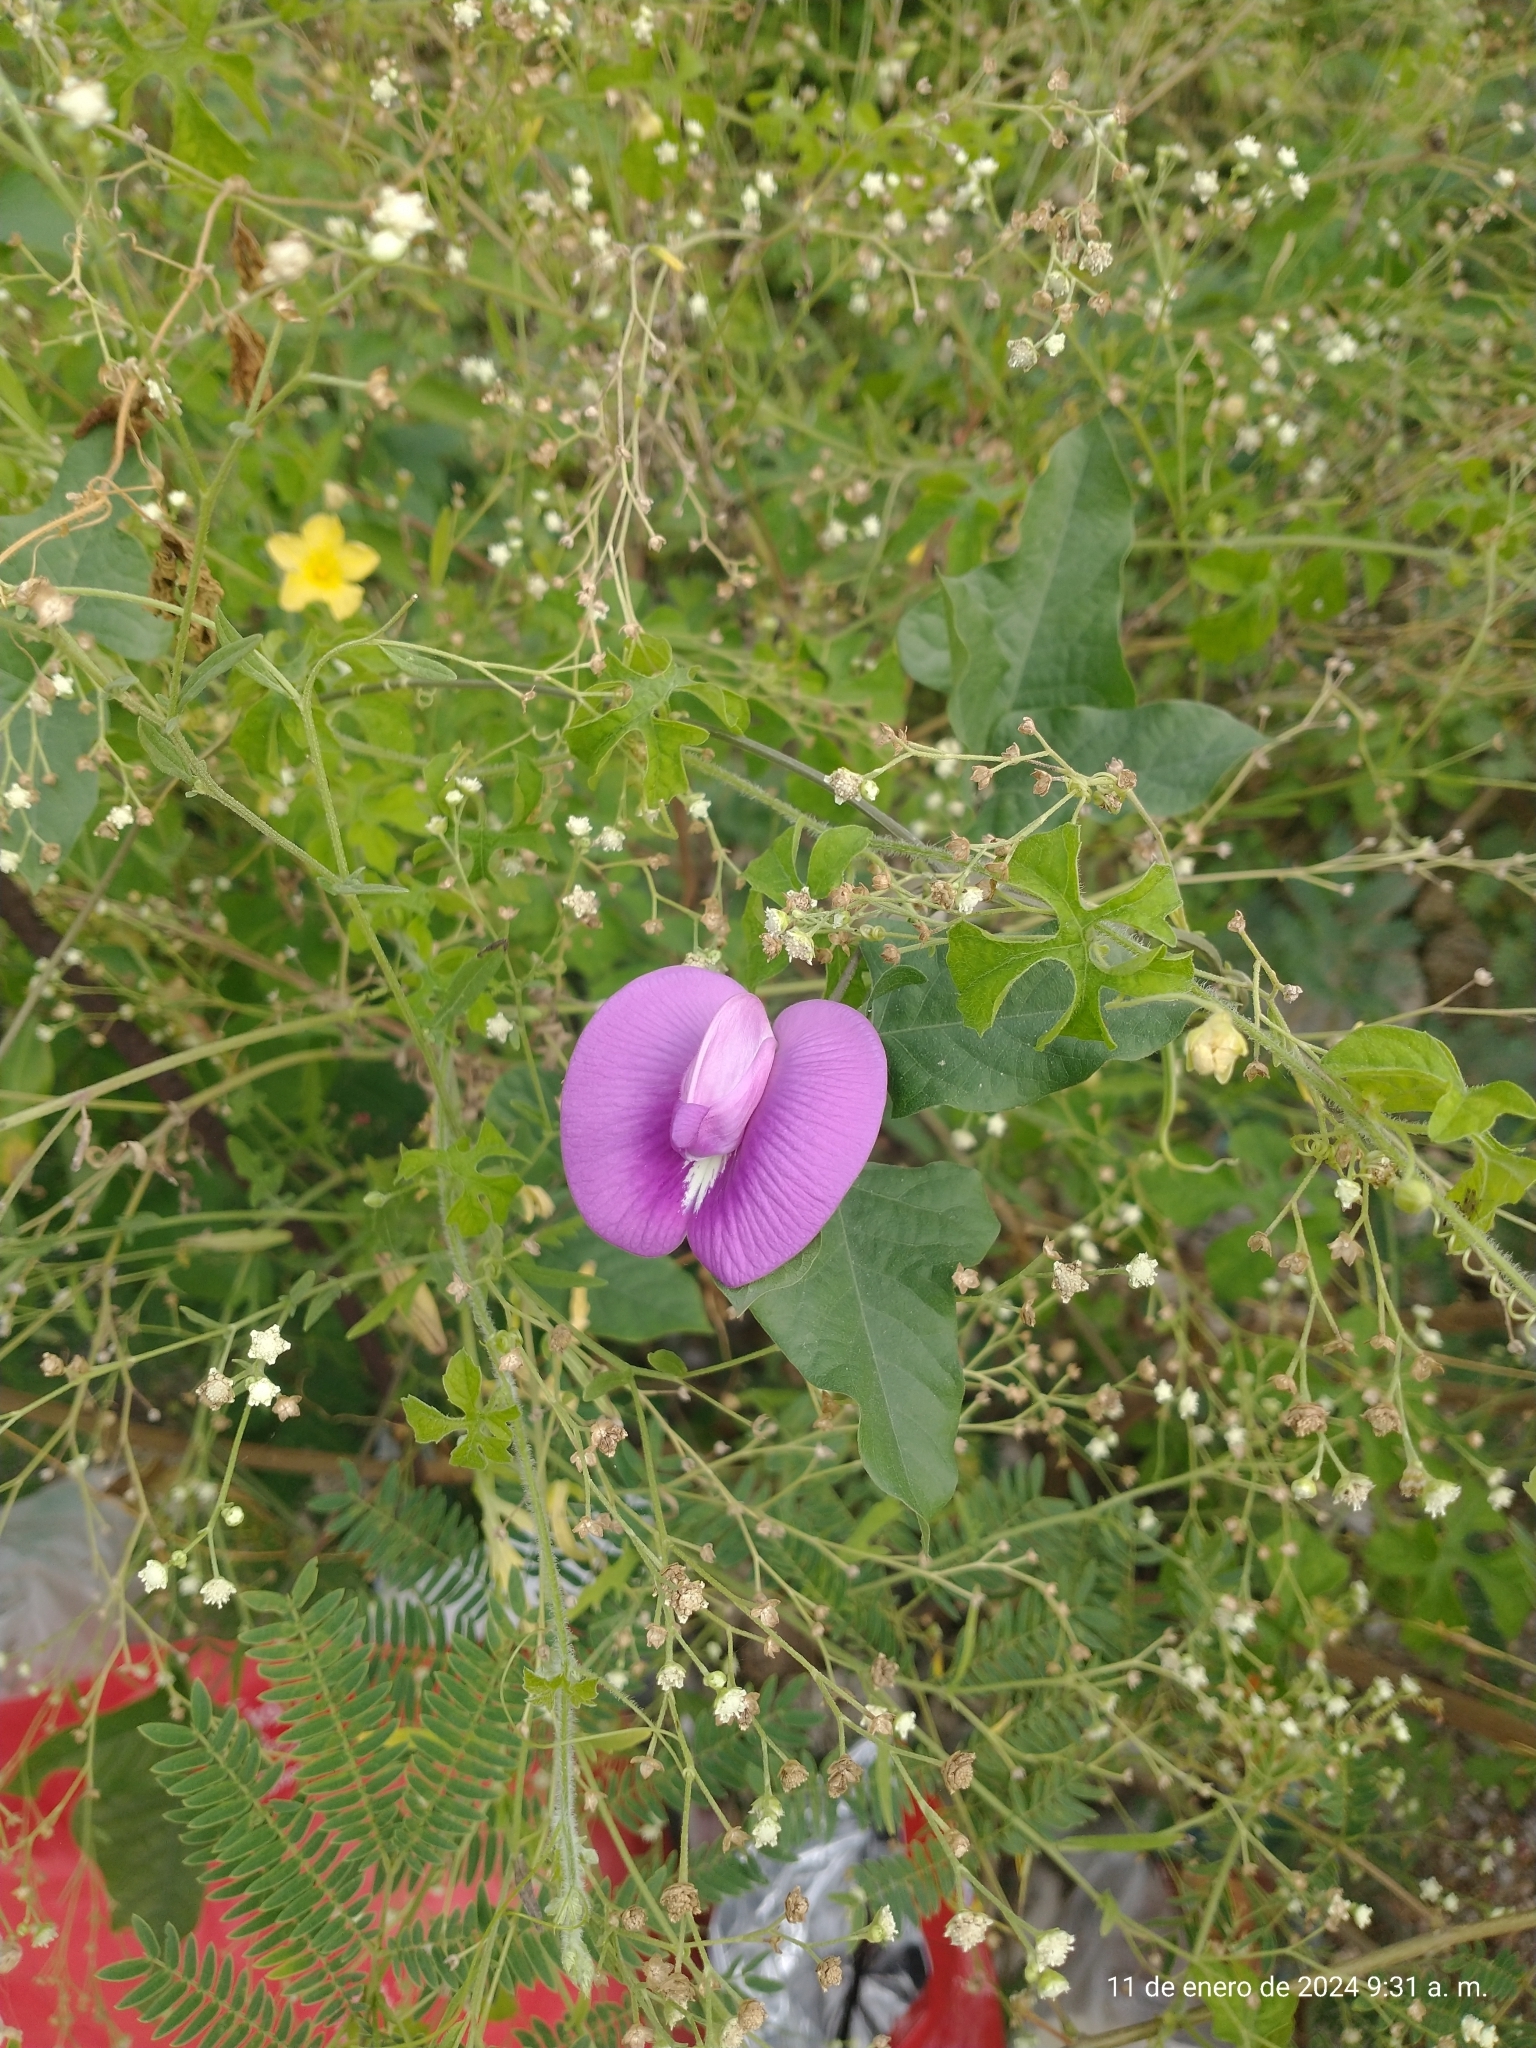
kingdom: Plantae
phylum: Tracheophyta
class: Magnoliopsida
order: Fabales
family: Fabaceae
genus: Centrosema
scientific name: Centrosema virginianum
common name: Butterfly-pea
